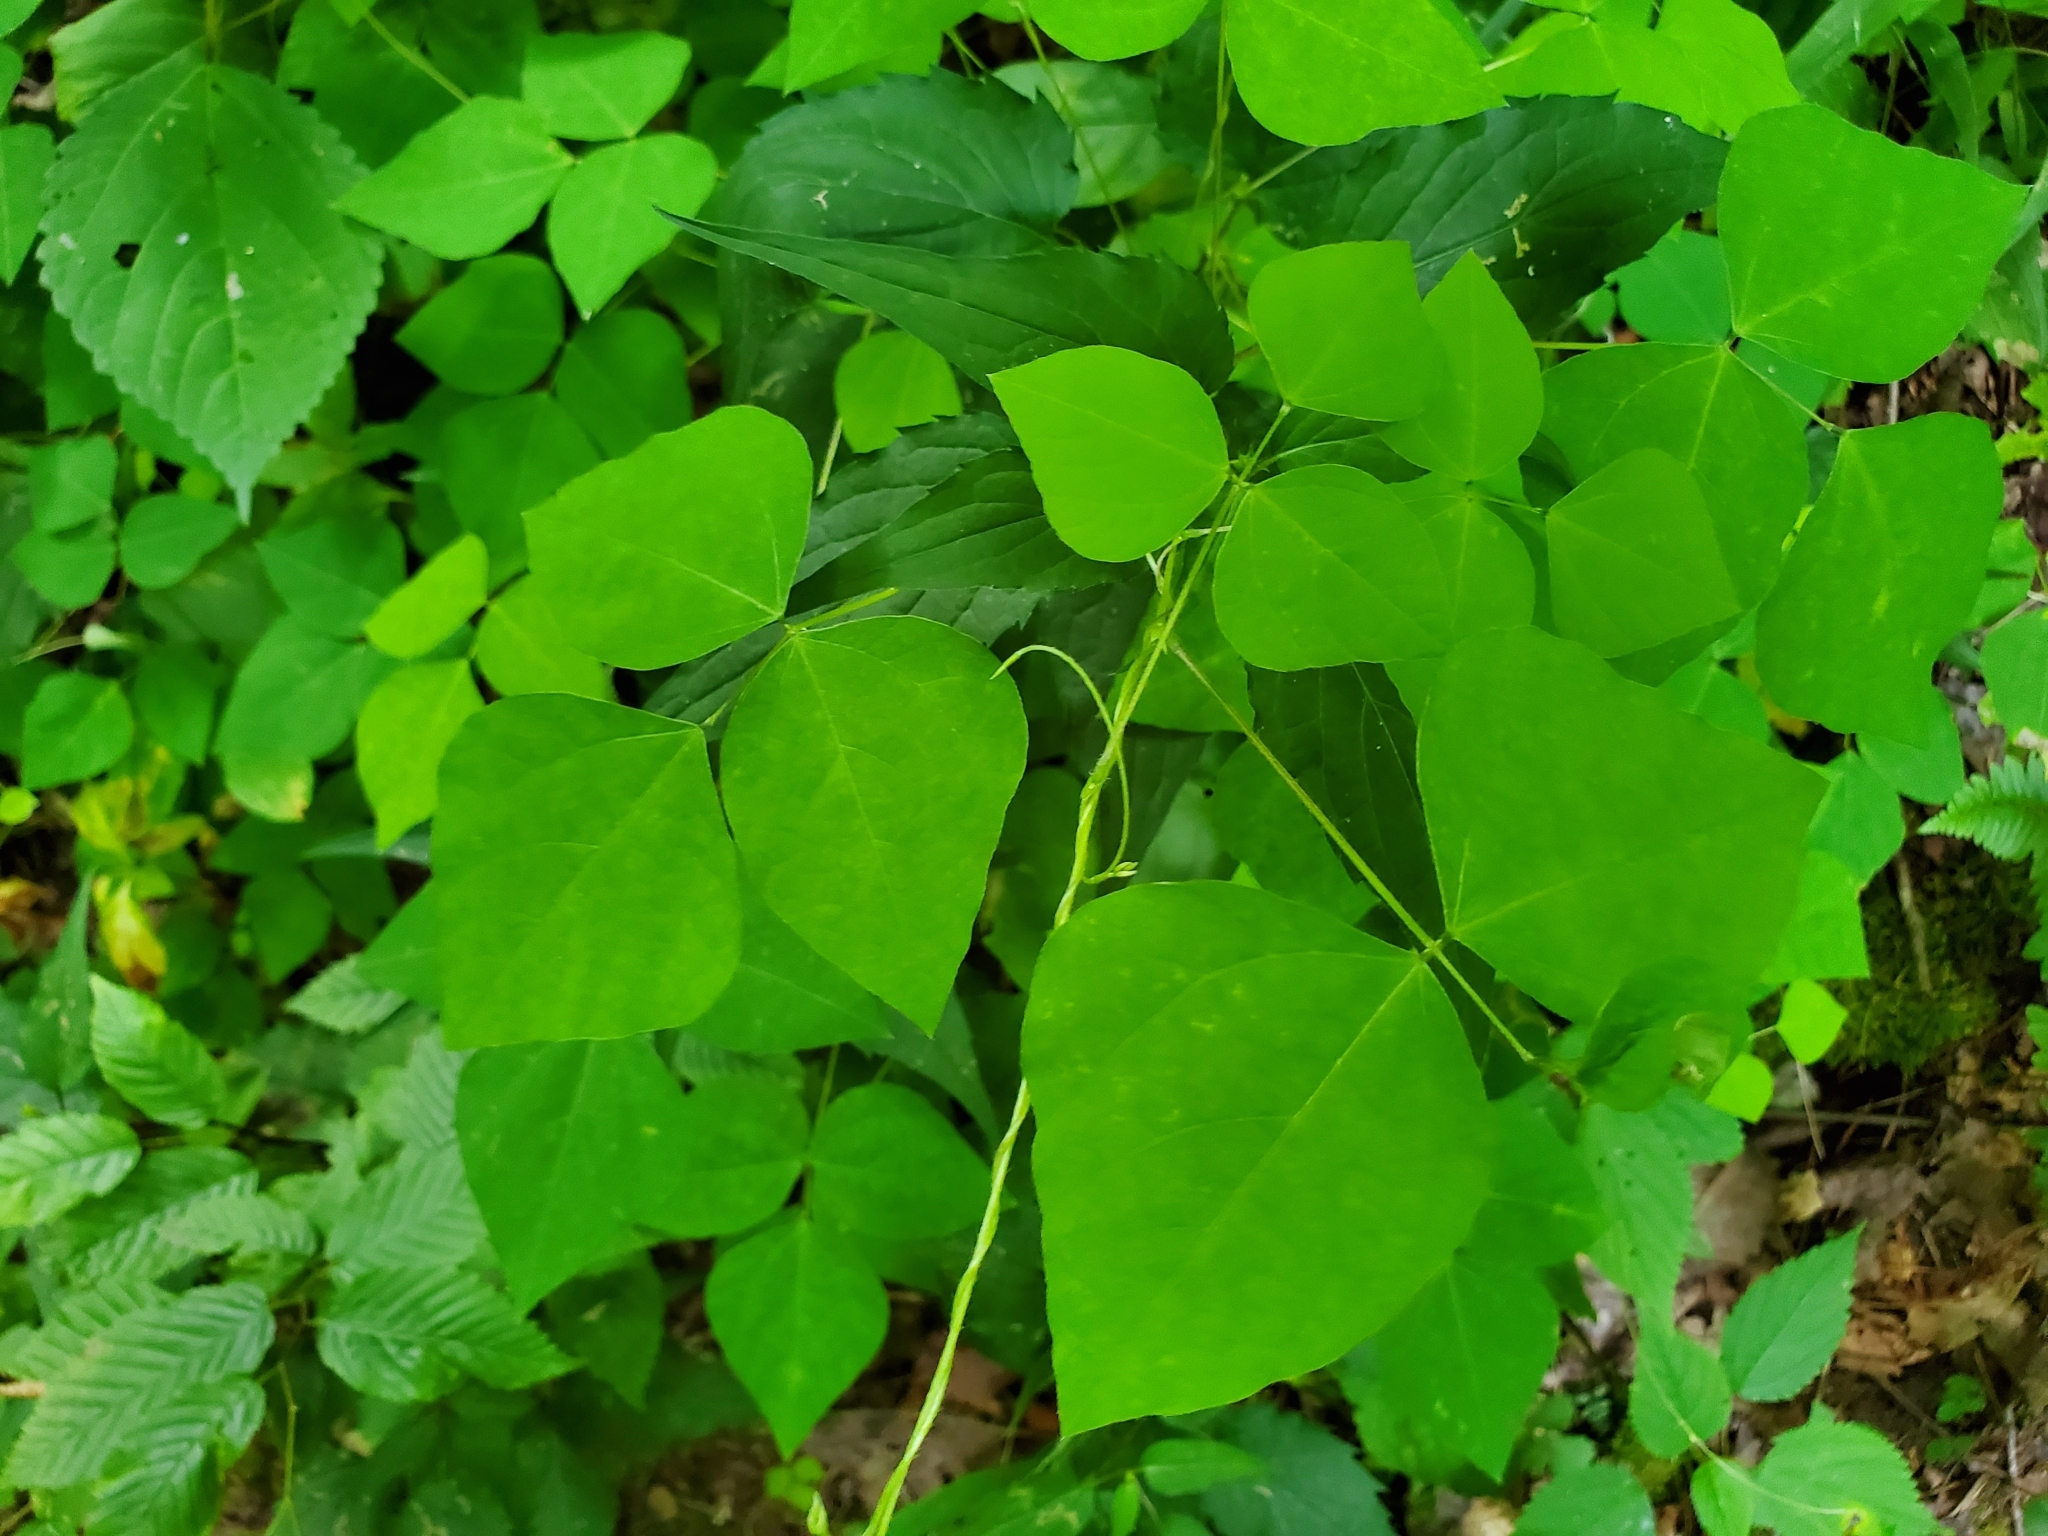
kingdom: Plantae
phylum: Tracheophyta
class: Magnoliopsida
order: Fabales
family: Fabaceae
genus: Amphicarpaea
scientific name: Amphicarpaea bracteata
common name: American hog peanut
